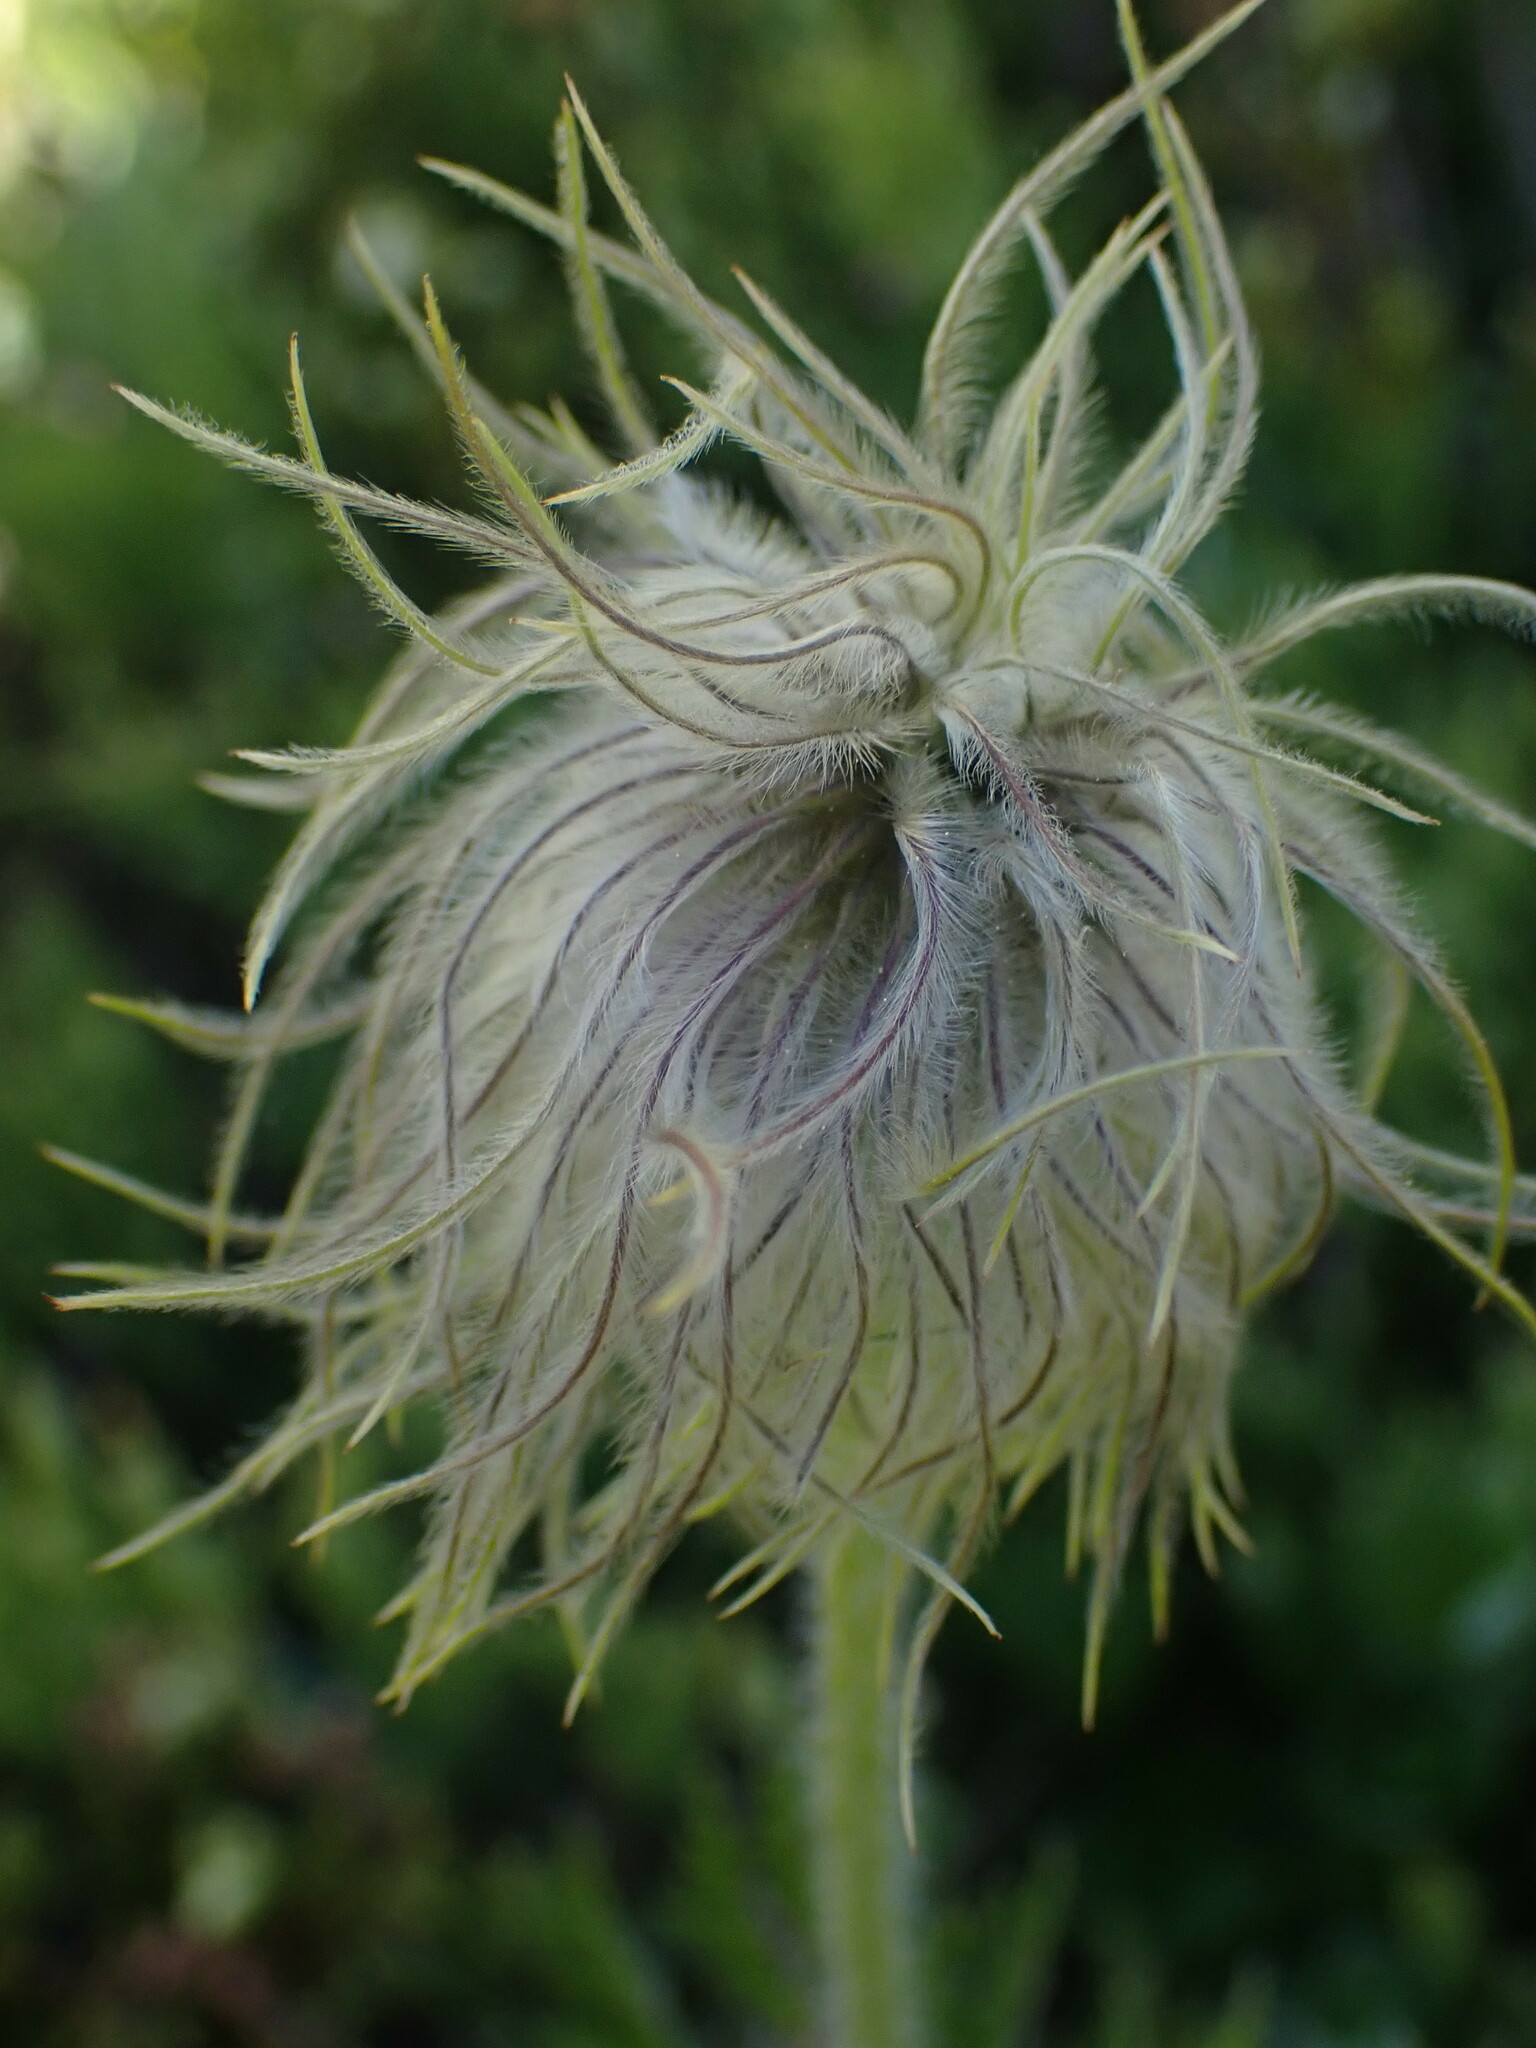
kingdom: Plantae
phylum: Tracheophyta
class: Magnoliopsida
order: Ranunculales
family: Ranunculaceae
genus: Pulsatilla
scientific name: Pulsatilla occidentalis
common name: Mountain pasqueflower
